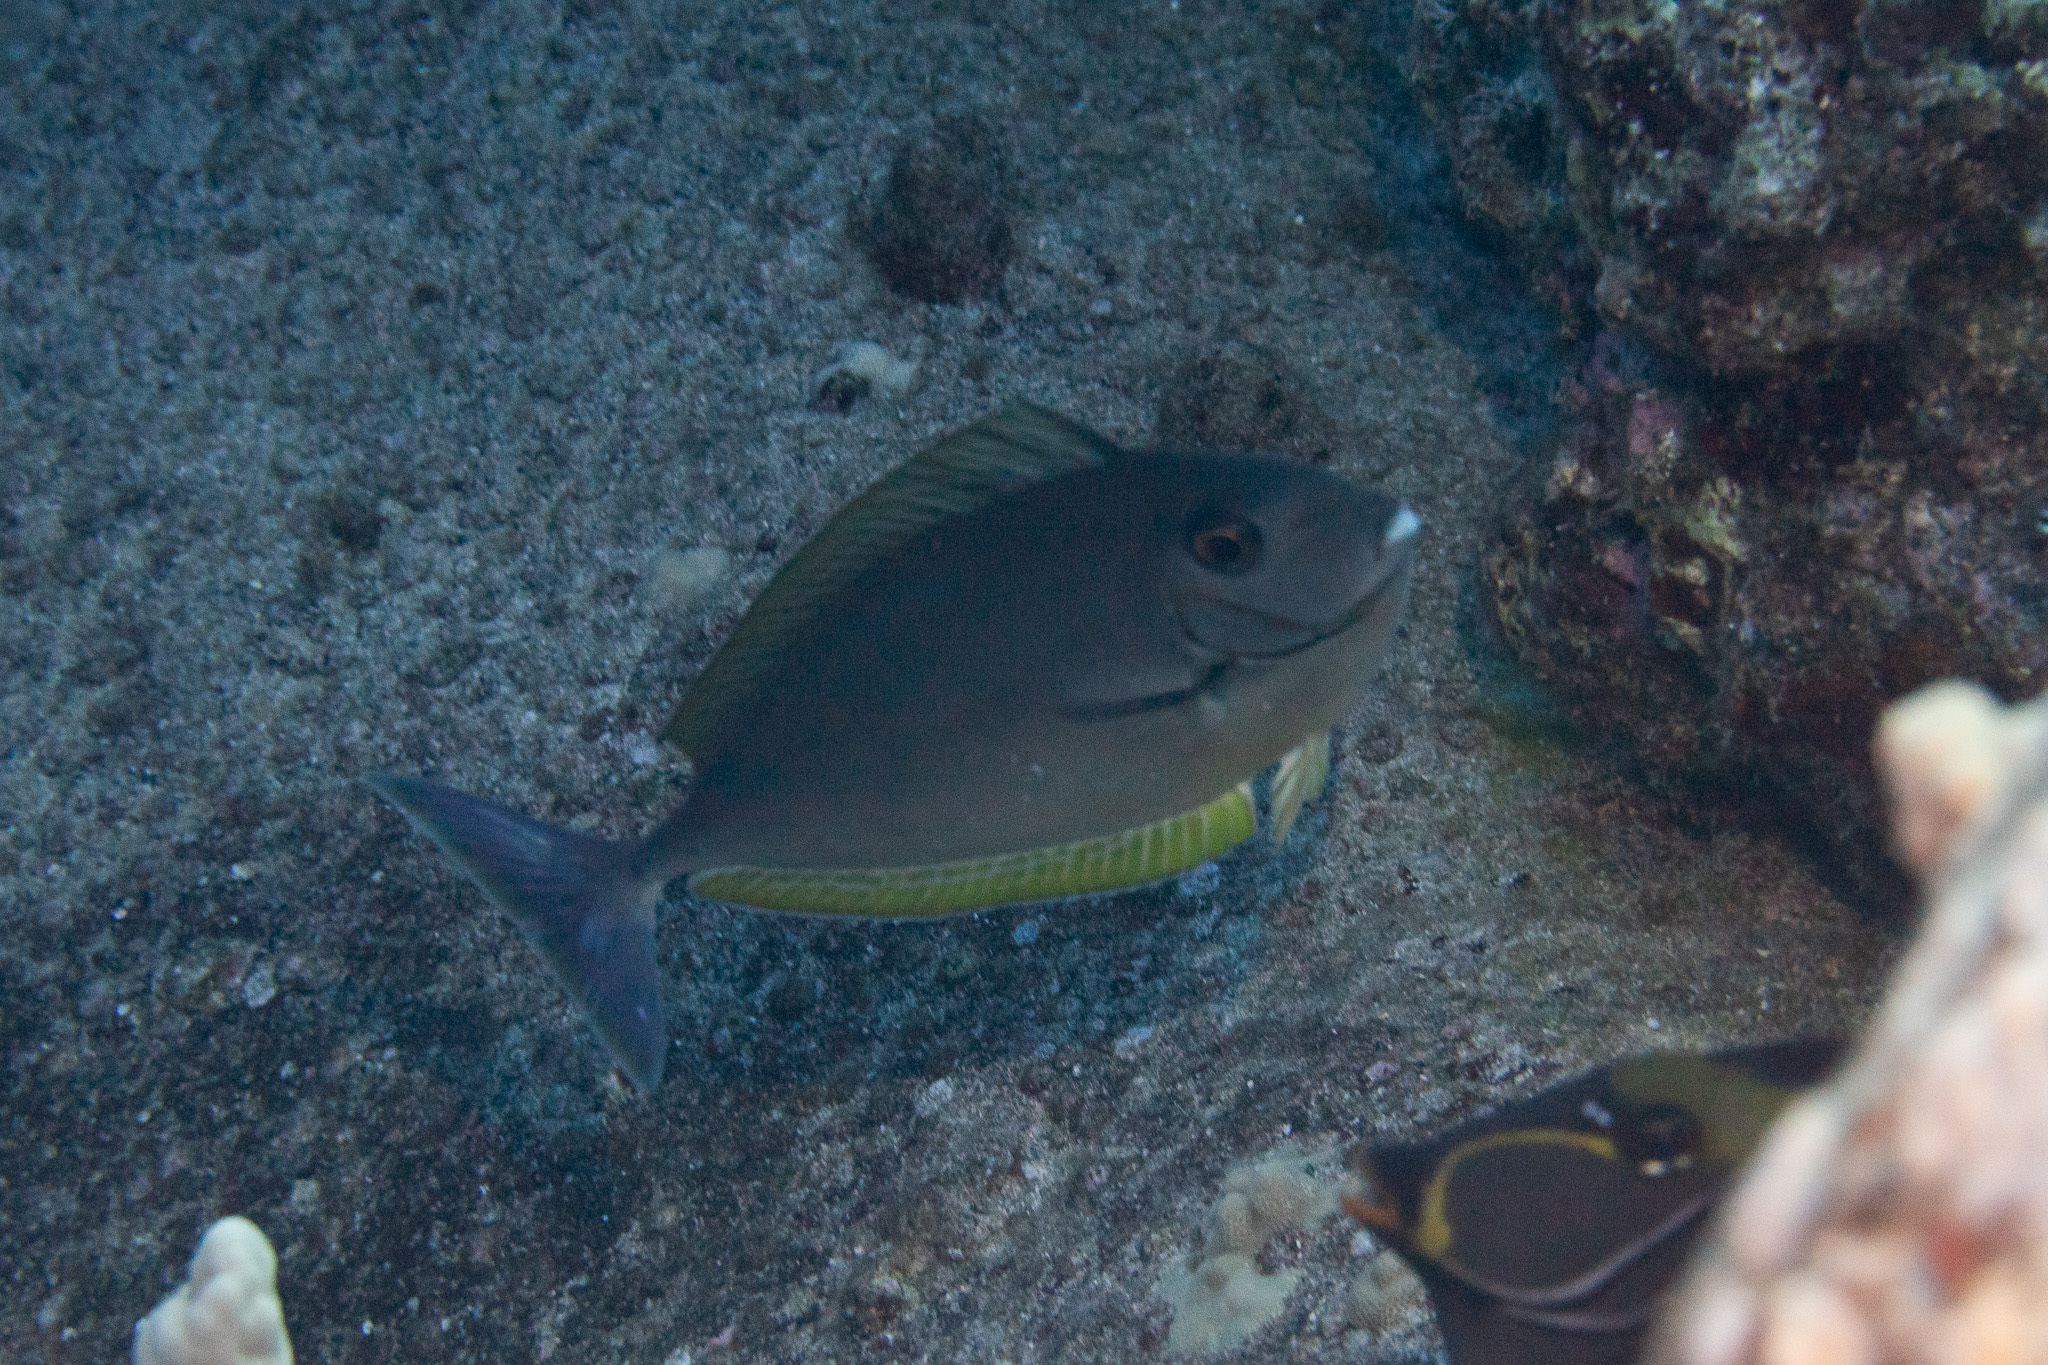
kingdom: Animalia
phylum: Chordata
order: Perciformes
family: Acanthuridae
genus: Naso
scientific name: Naso hexacanthus
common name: Black unicornfish
